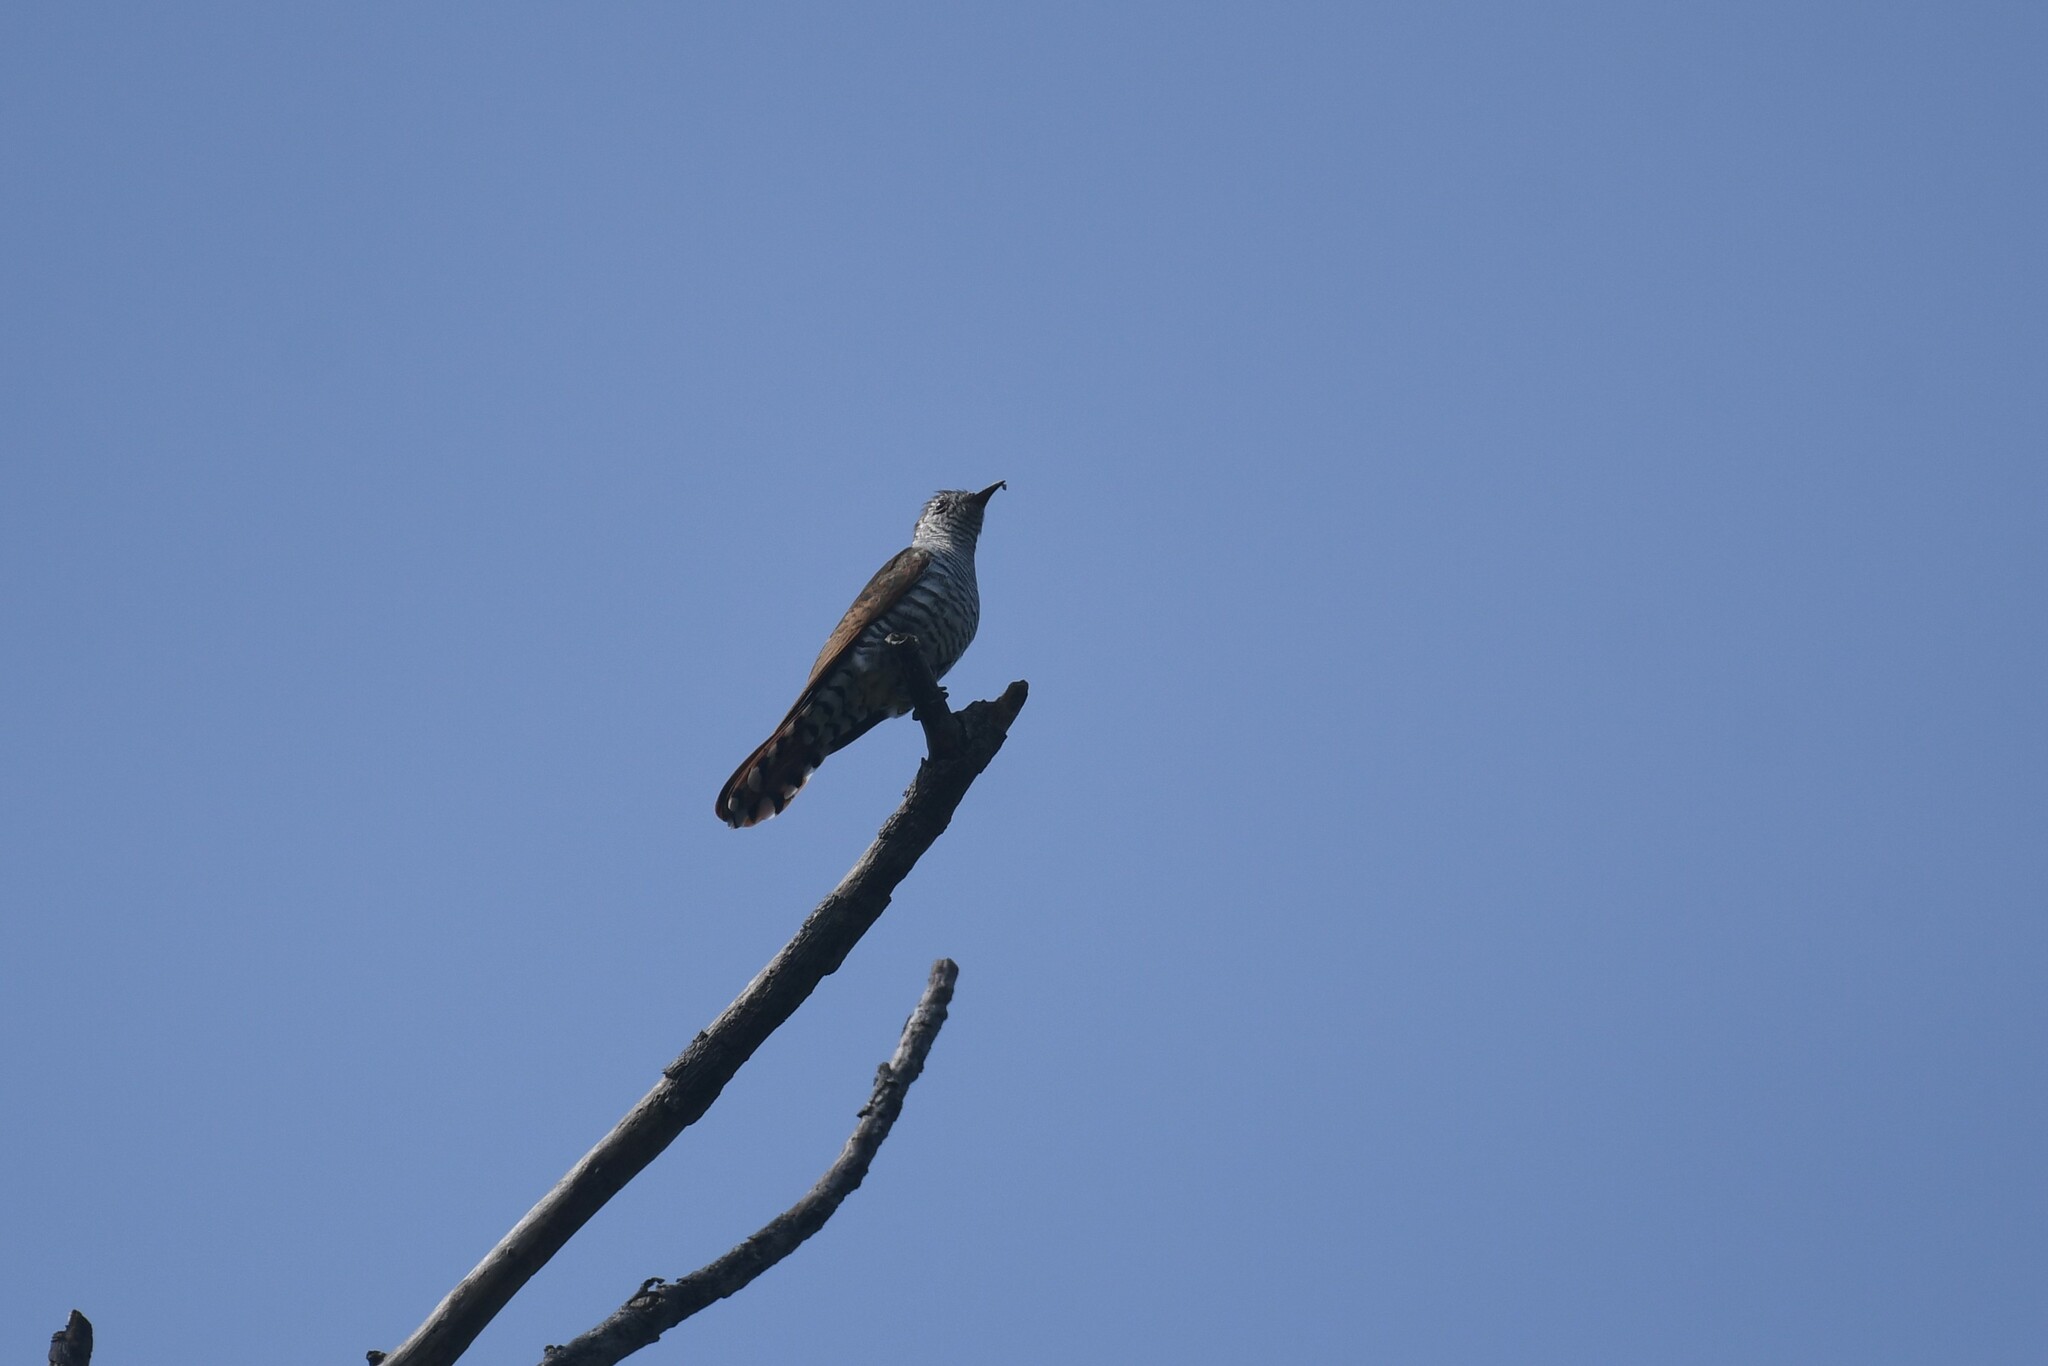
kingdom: Animalia
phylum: Chordata
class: Aves
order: Cuculiformes
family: Cuculidae
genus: Chrysococcyx
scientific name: Chrysococcyx xanthorhynchus
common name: Violet cuckoo
